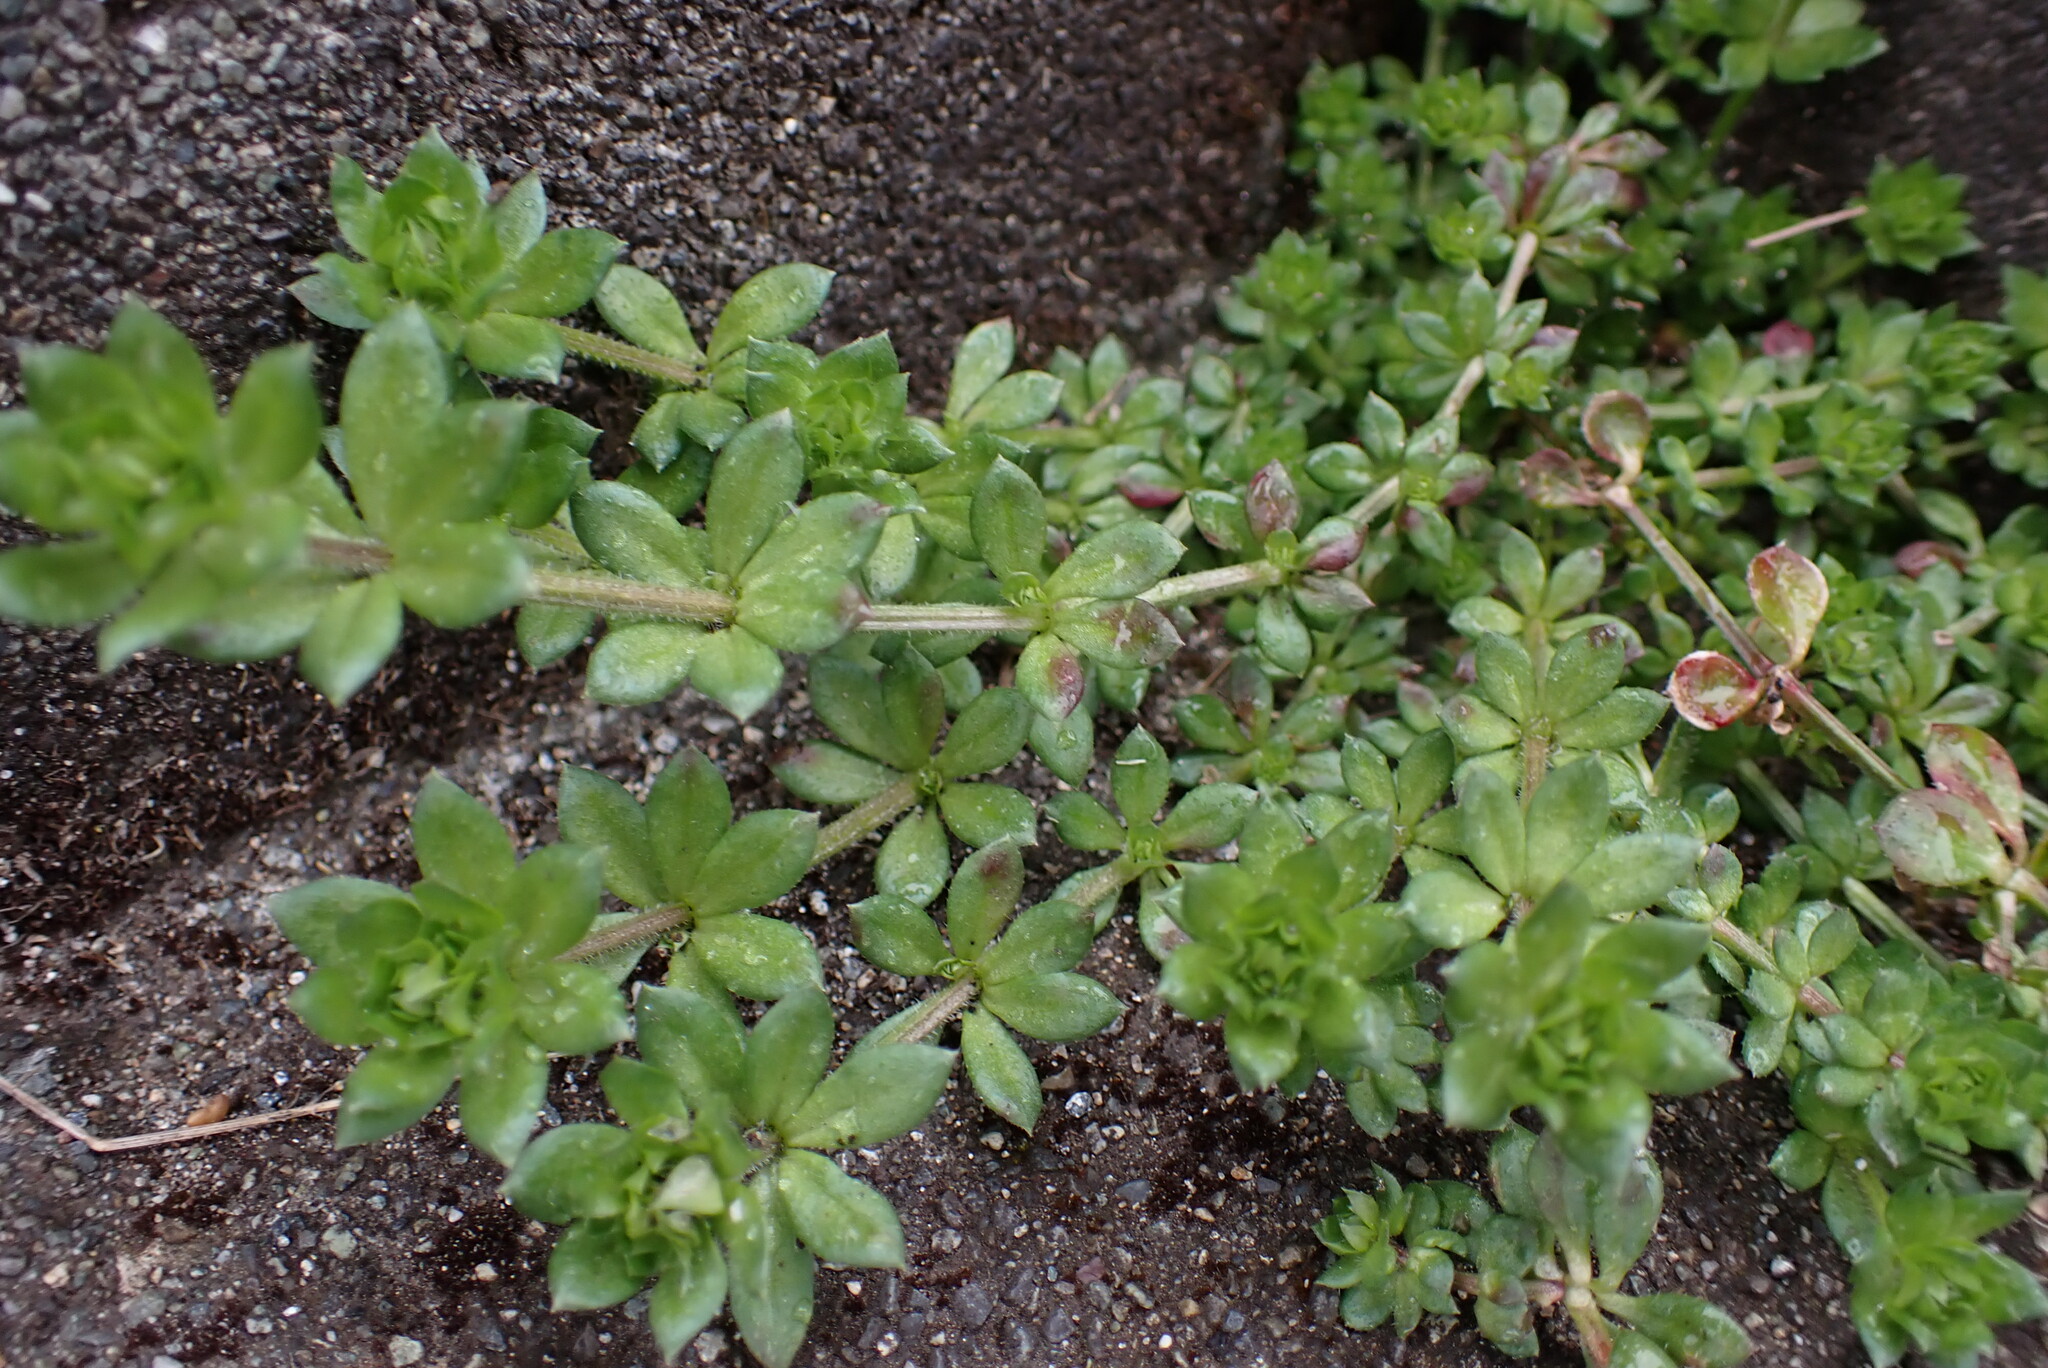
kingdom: Plantae
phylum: Tracheophyta
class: Magnoliopsida
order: Gentianales
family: Rubiaceae
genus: Sherardia
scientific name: Sherardia arvensis
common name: Field madder
